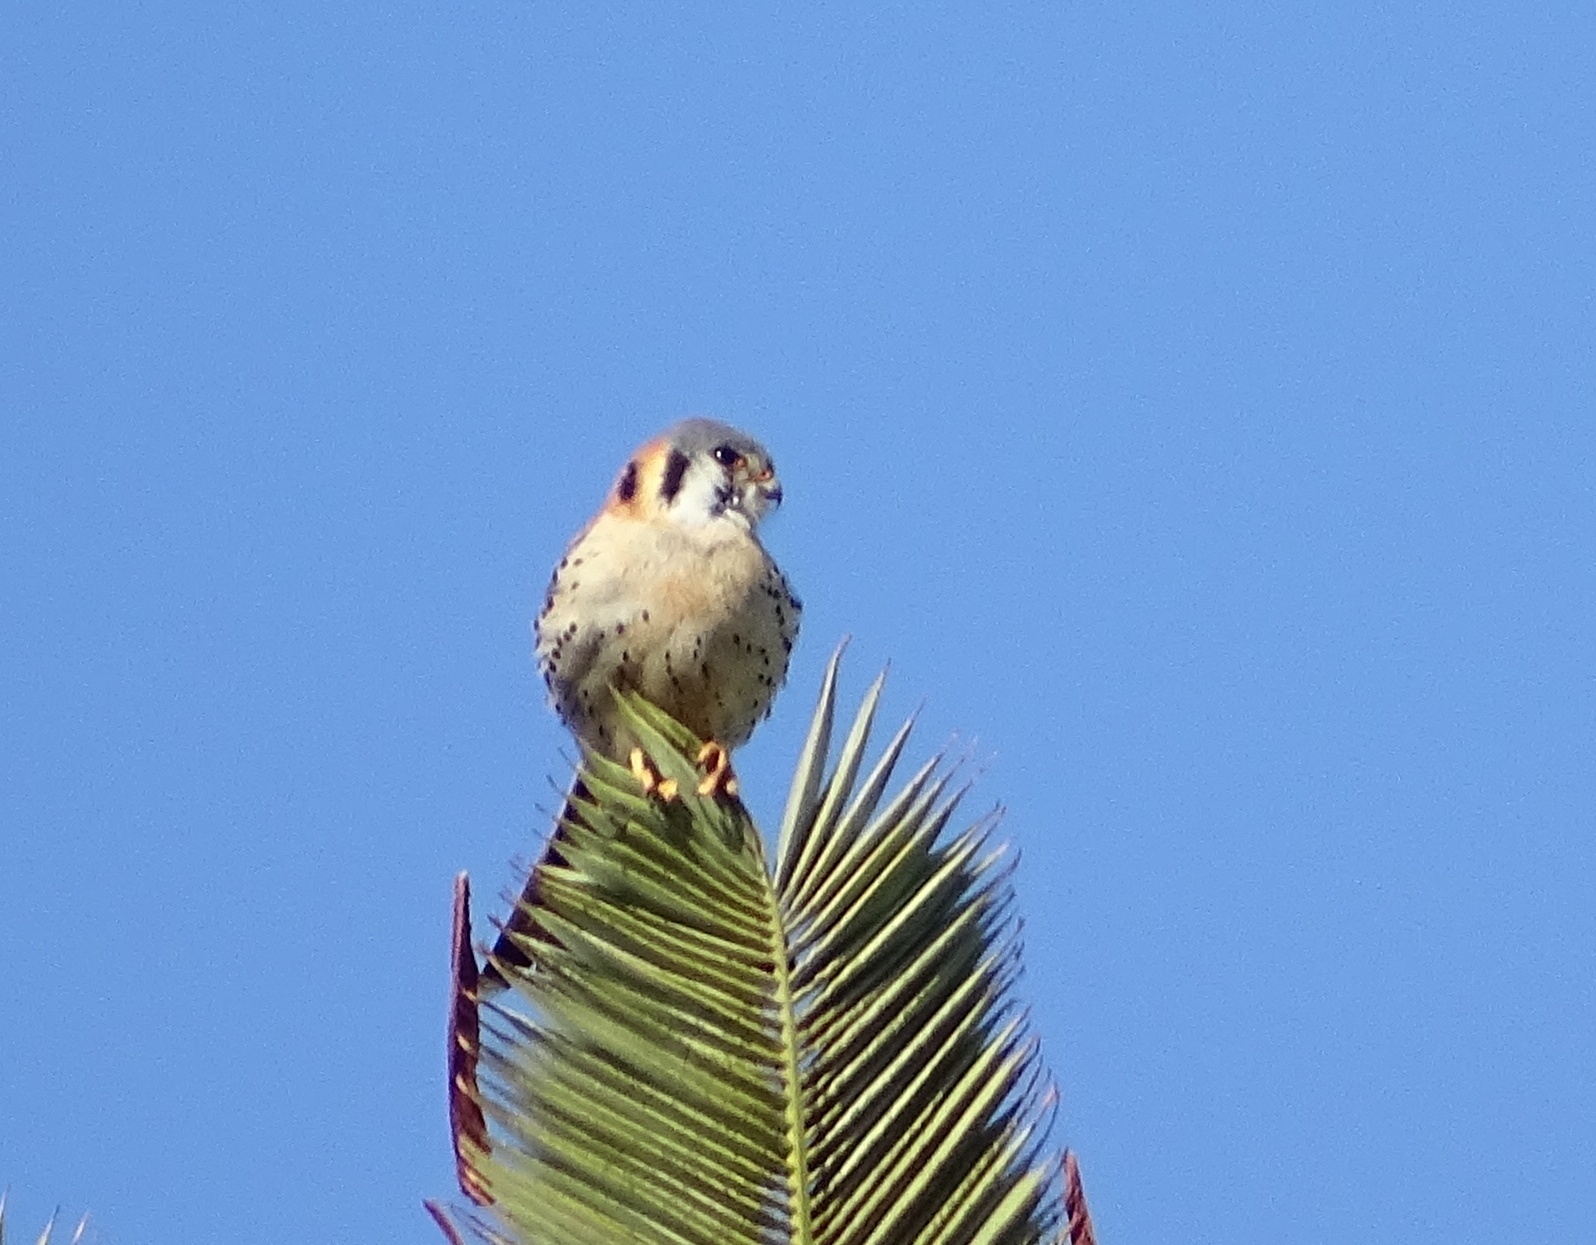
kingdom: Animalia
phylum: Chordata
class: Aves
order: Falconiformes
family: Falconidae
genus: Falco
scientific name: Falco sparverius
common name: American kestrel
